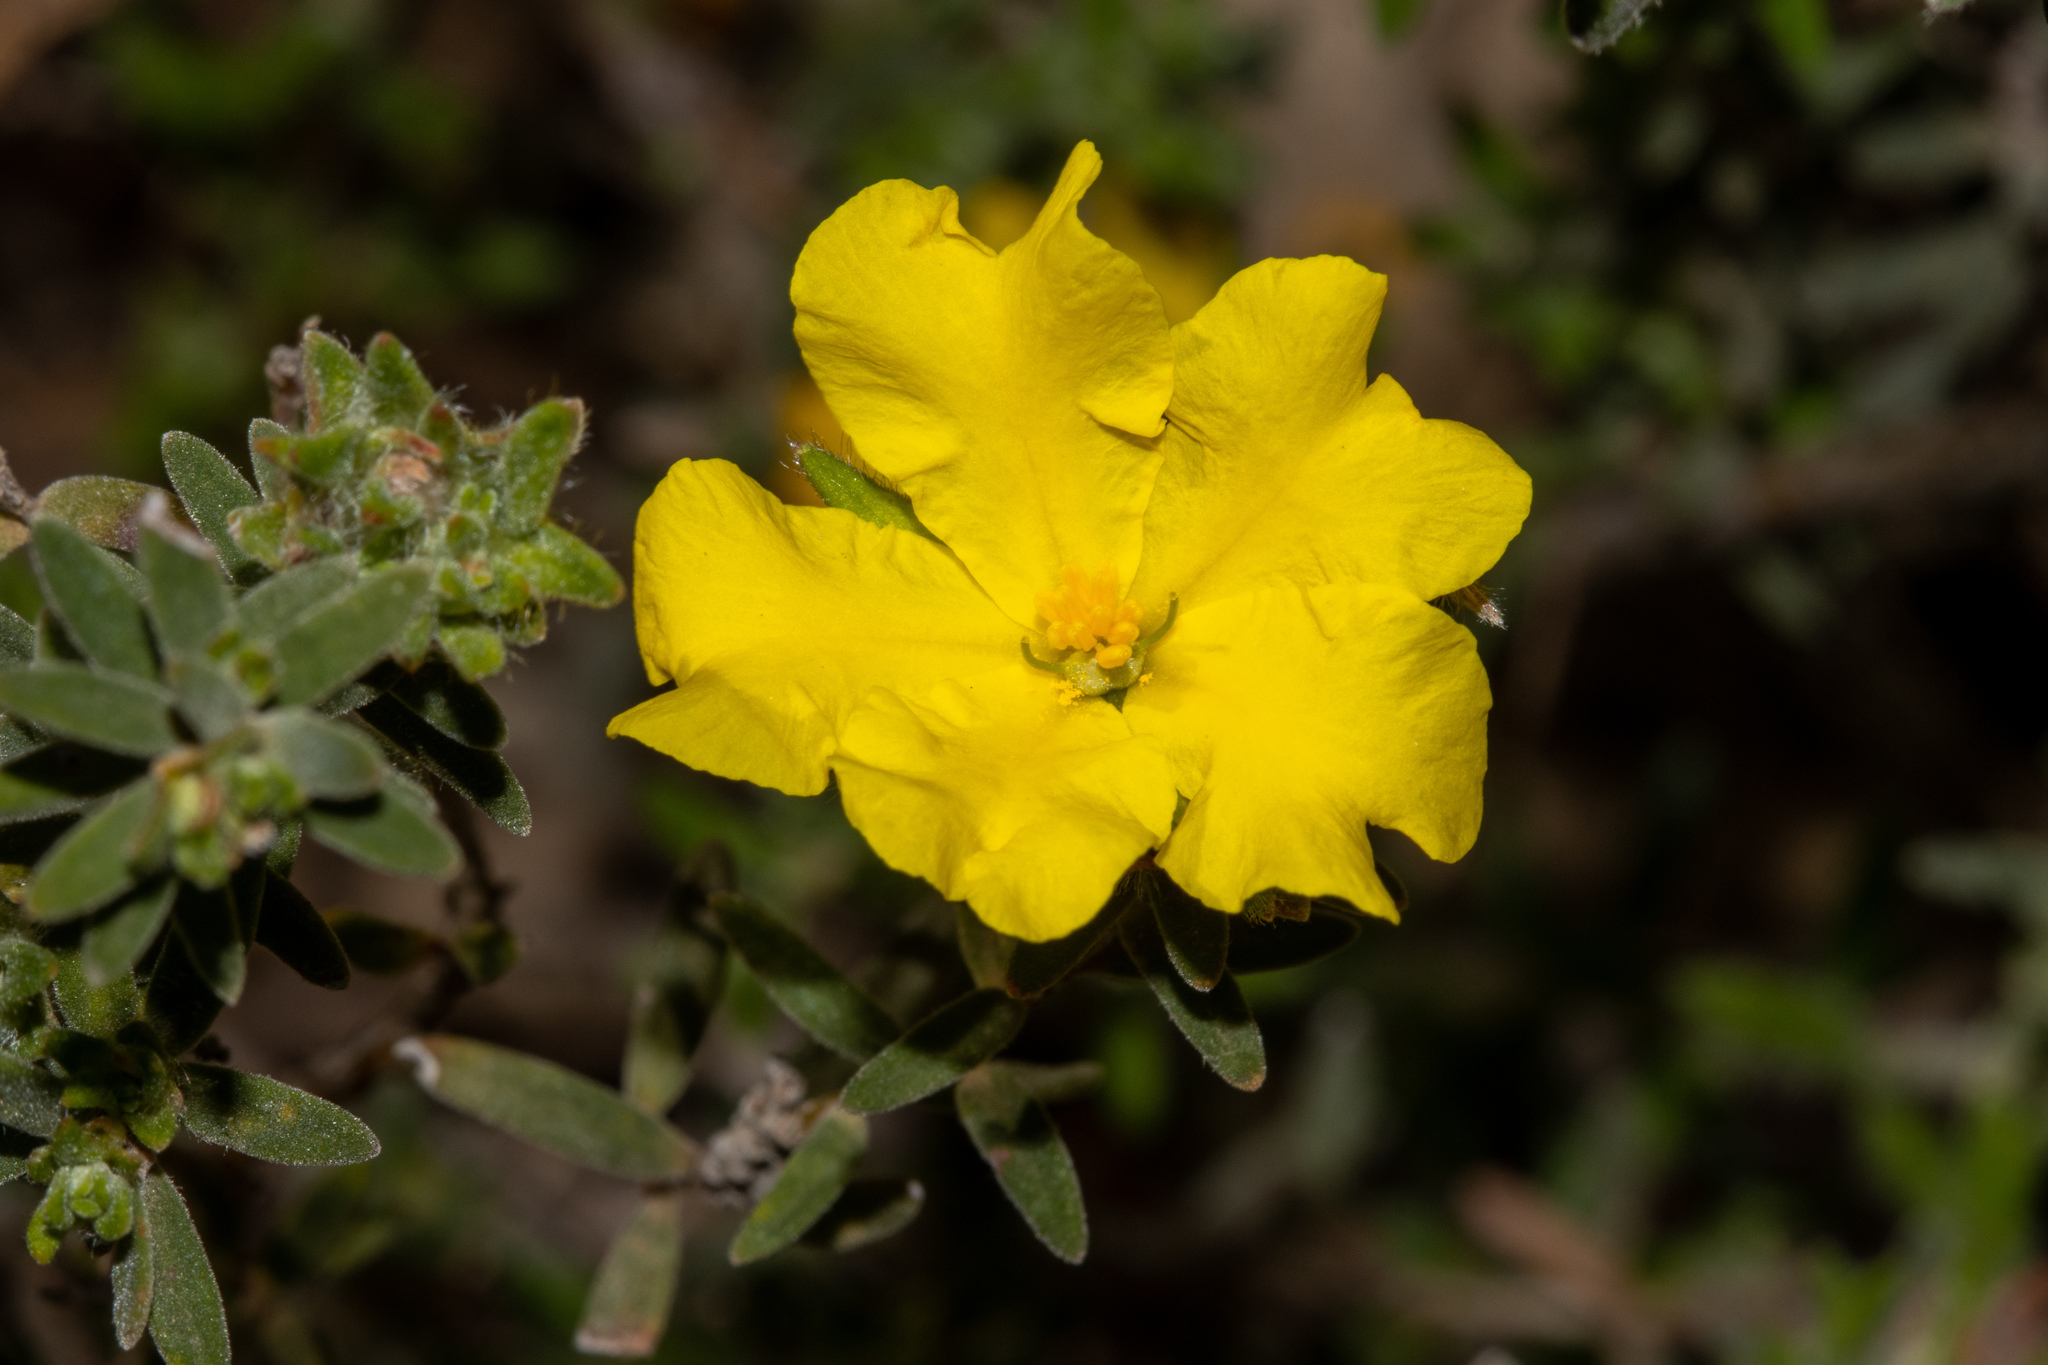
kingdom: Plantae
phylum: Tracheophyta
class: Magnoliopsida
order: Dilleniales
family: Dilleniaceae
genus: Hibbertia
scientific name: Hibbertia crinita
